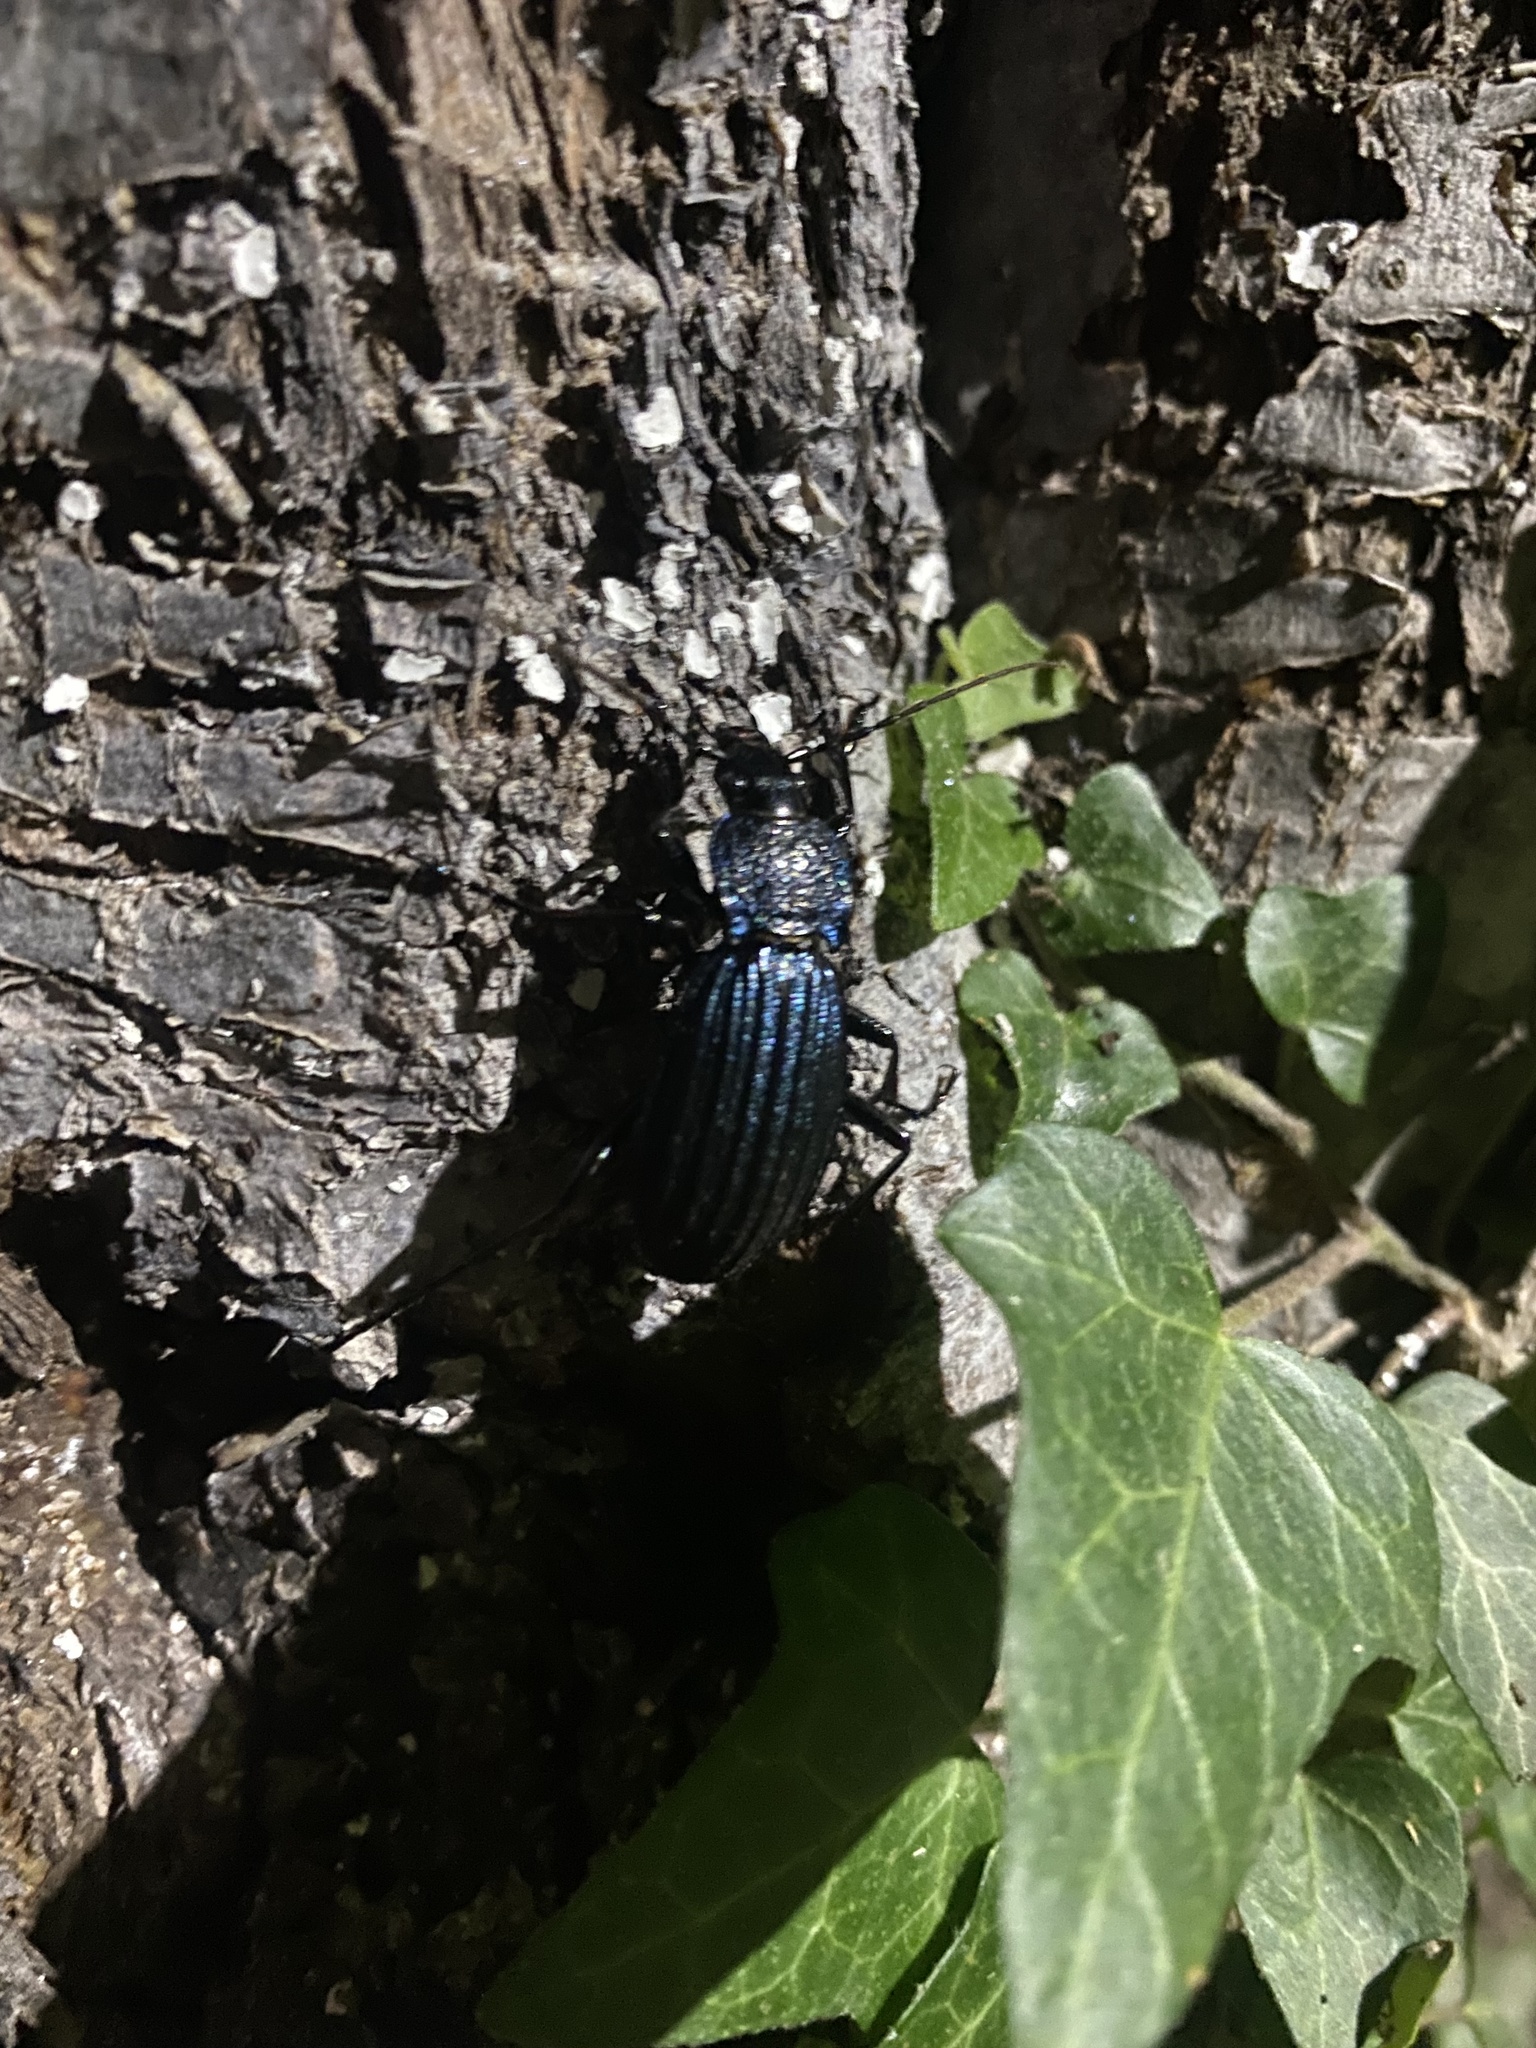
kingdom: Animalia
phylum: Arthropoda
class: Insecta
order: Coleoptera
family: Carabidae
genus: Carabus
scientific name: Carabus exaratus
